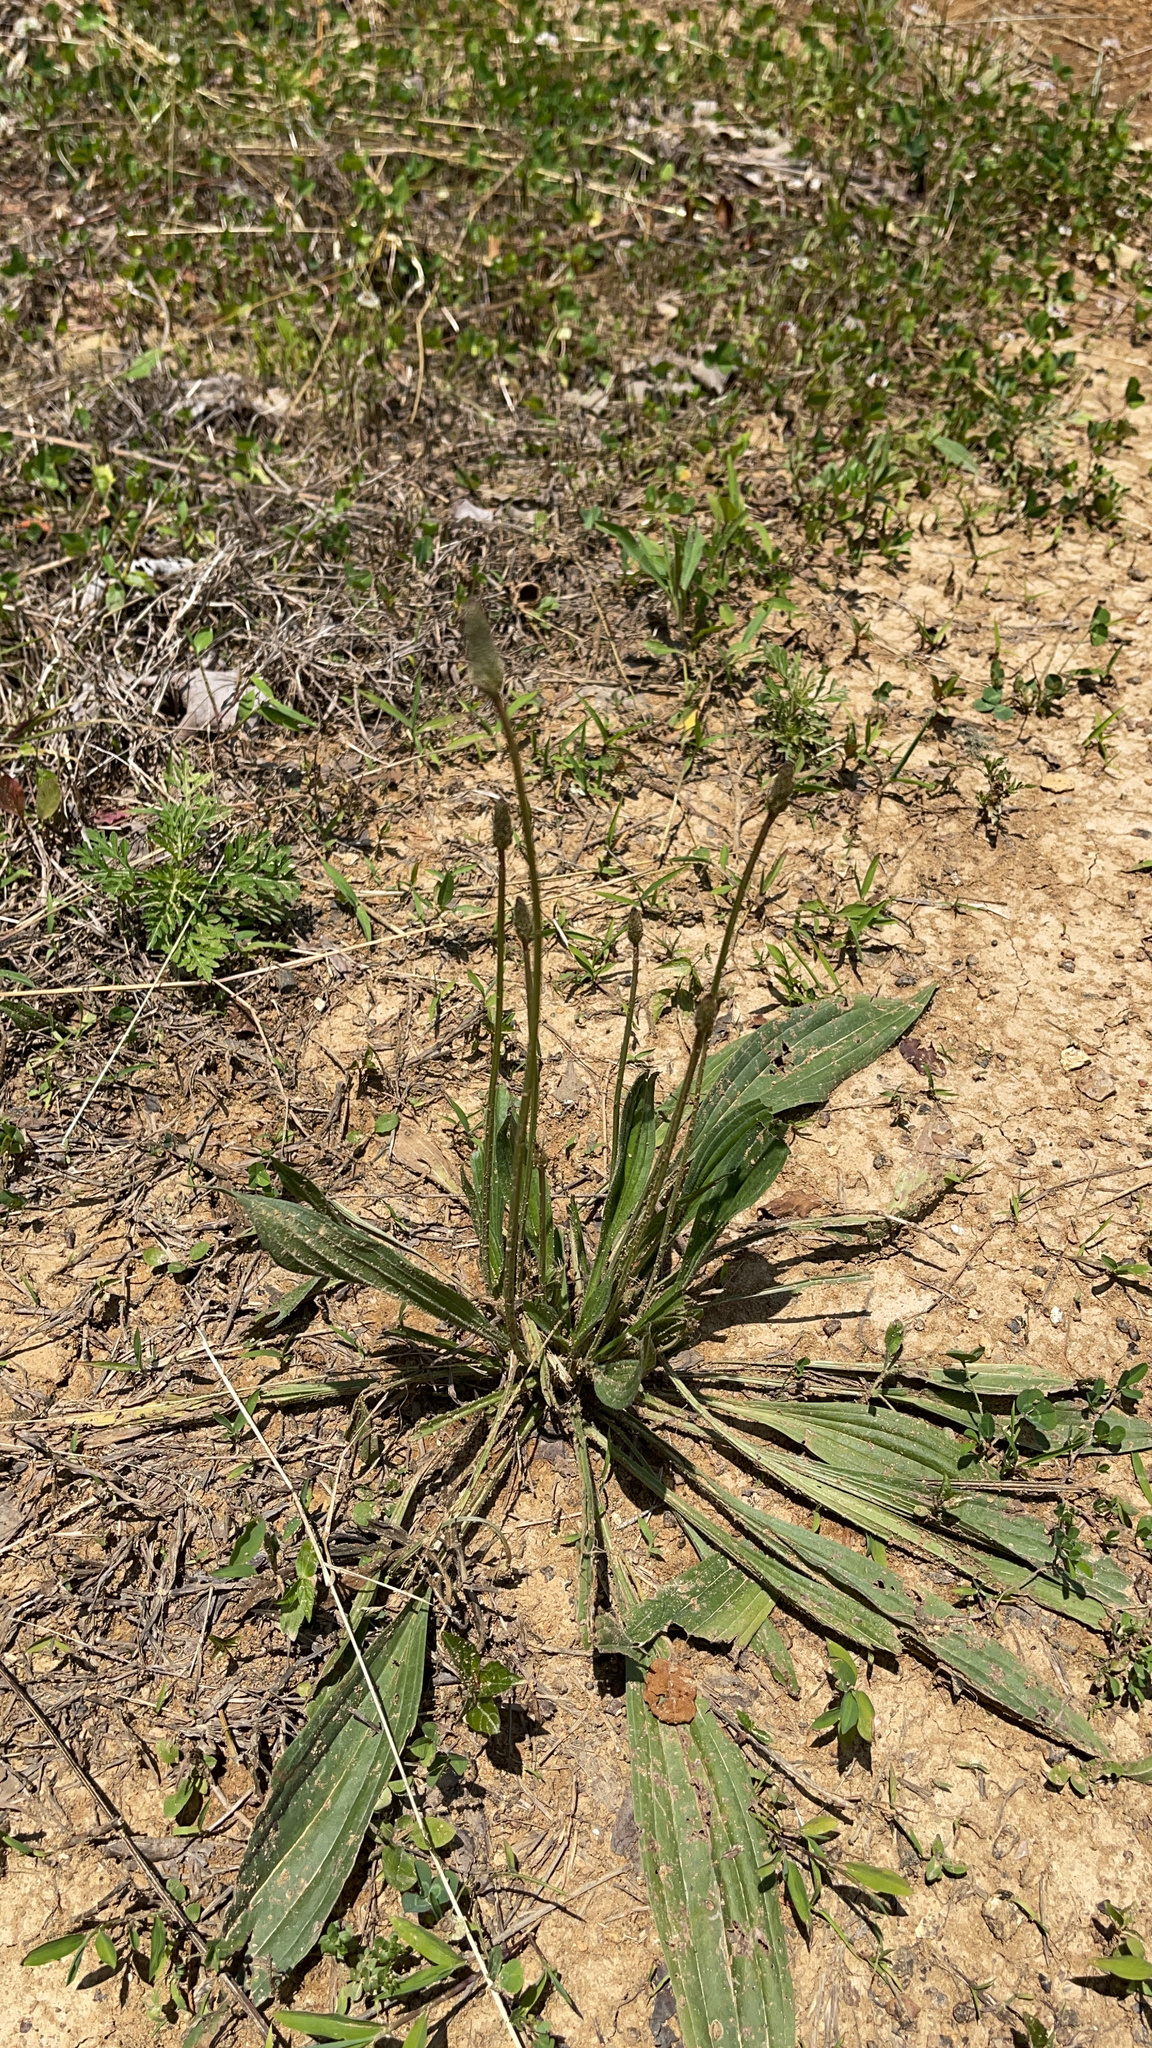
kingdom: Plantae
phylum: Tracheophyta
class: Magnoliopsida
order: Lamiales
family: Plantaginaceae
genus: Plantago
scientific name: Plantago lanceolata
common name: Ribwort plantain
